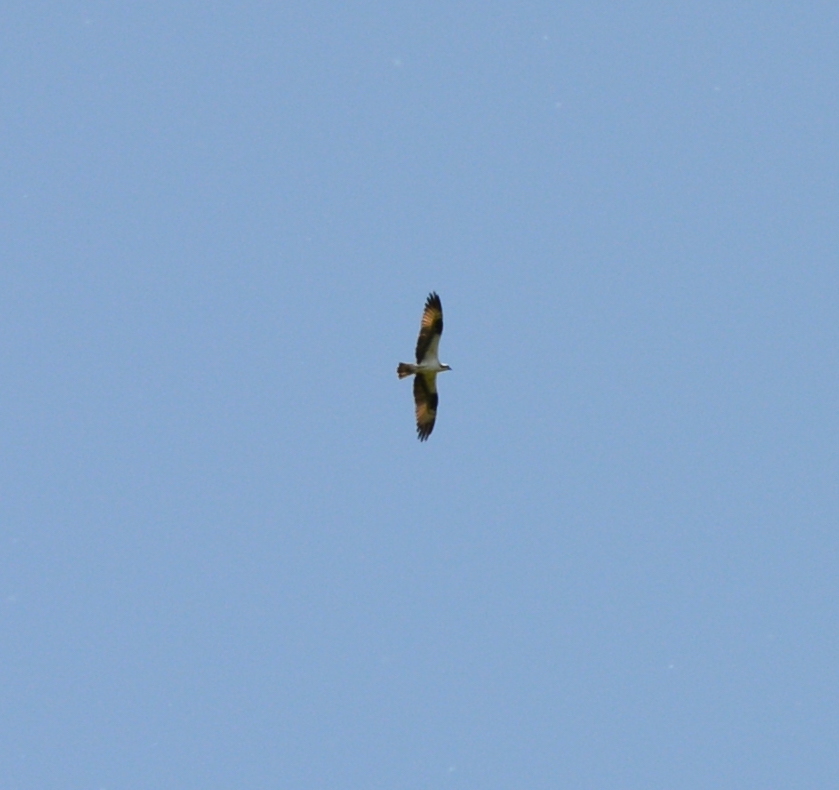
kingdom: Animalia
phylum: Chordata
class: Aves
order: Accipitriformes
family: Pandionidae
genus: Pandion
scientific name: Pandion haliaetus
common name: Osprey
